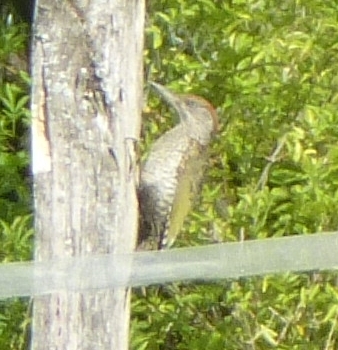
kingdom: Animalia
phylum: Chordata
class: Aves
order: Piciformes
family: Picidae
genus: Picus
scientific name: Picus viridis
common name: European green woodpecker
